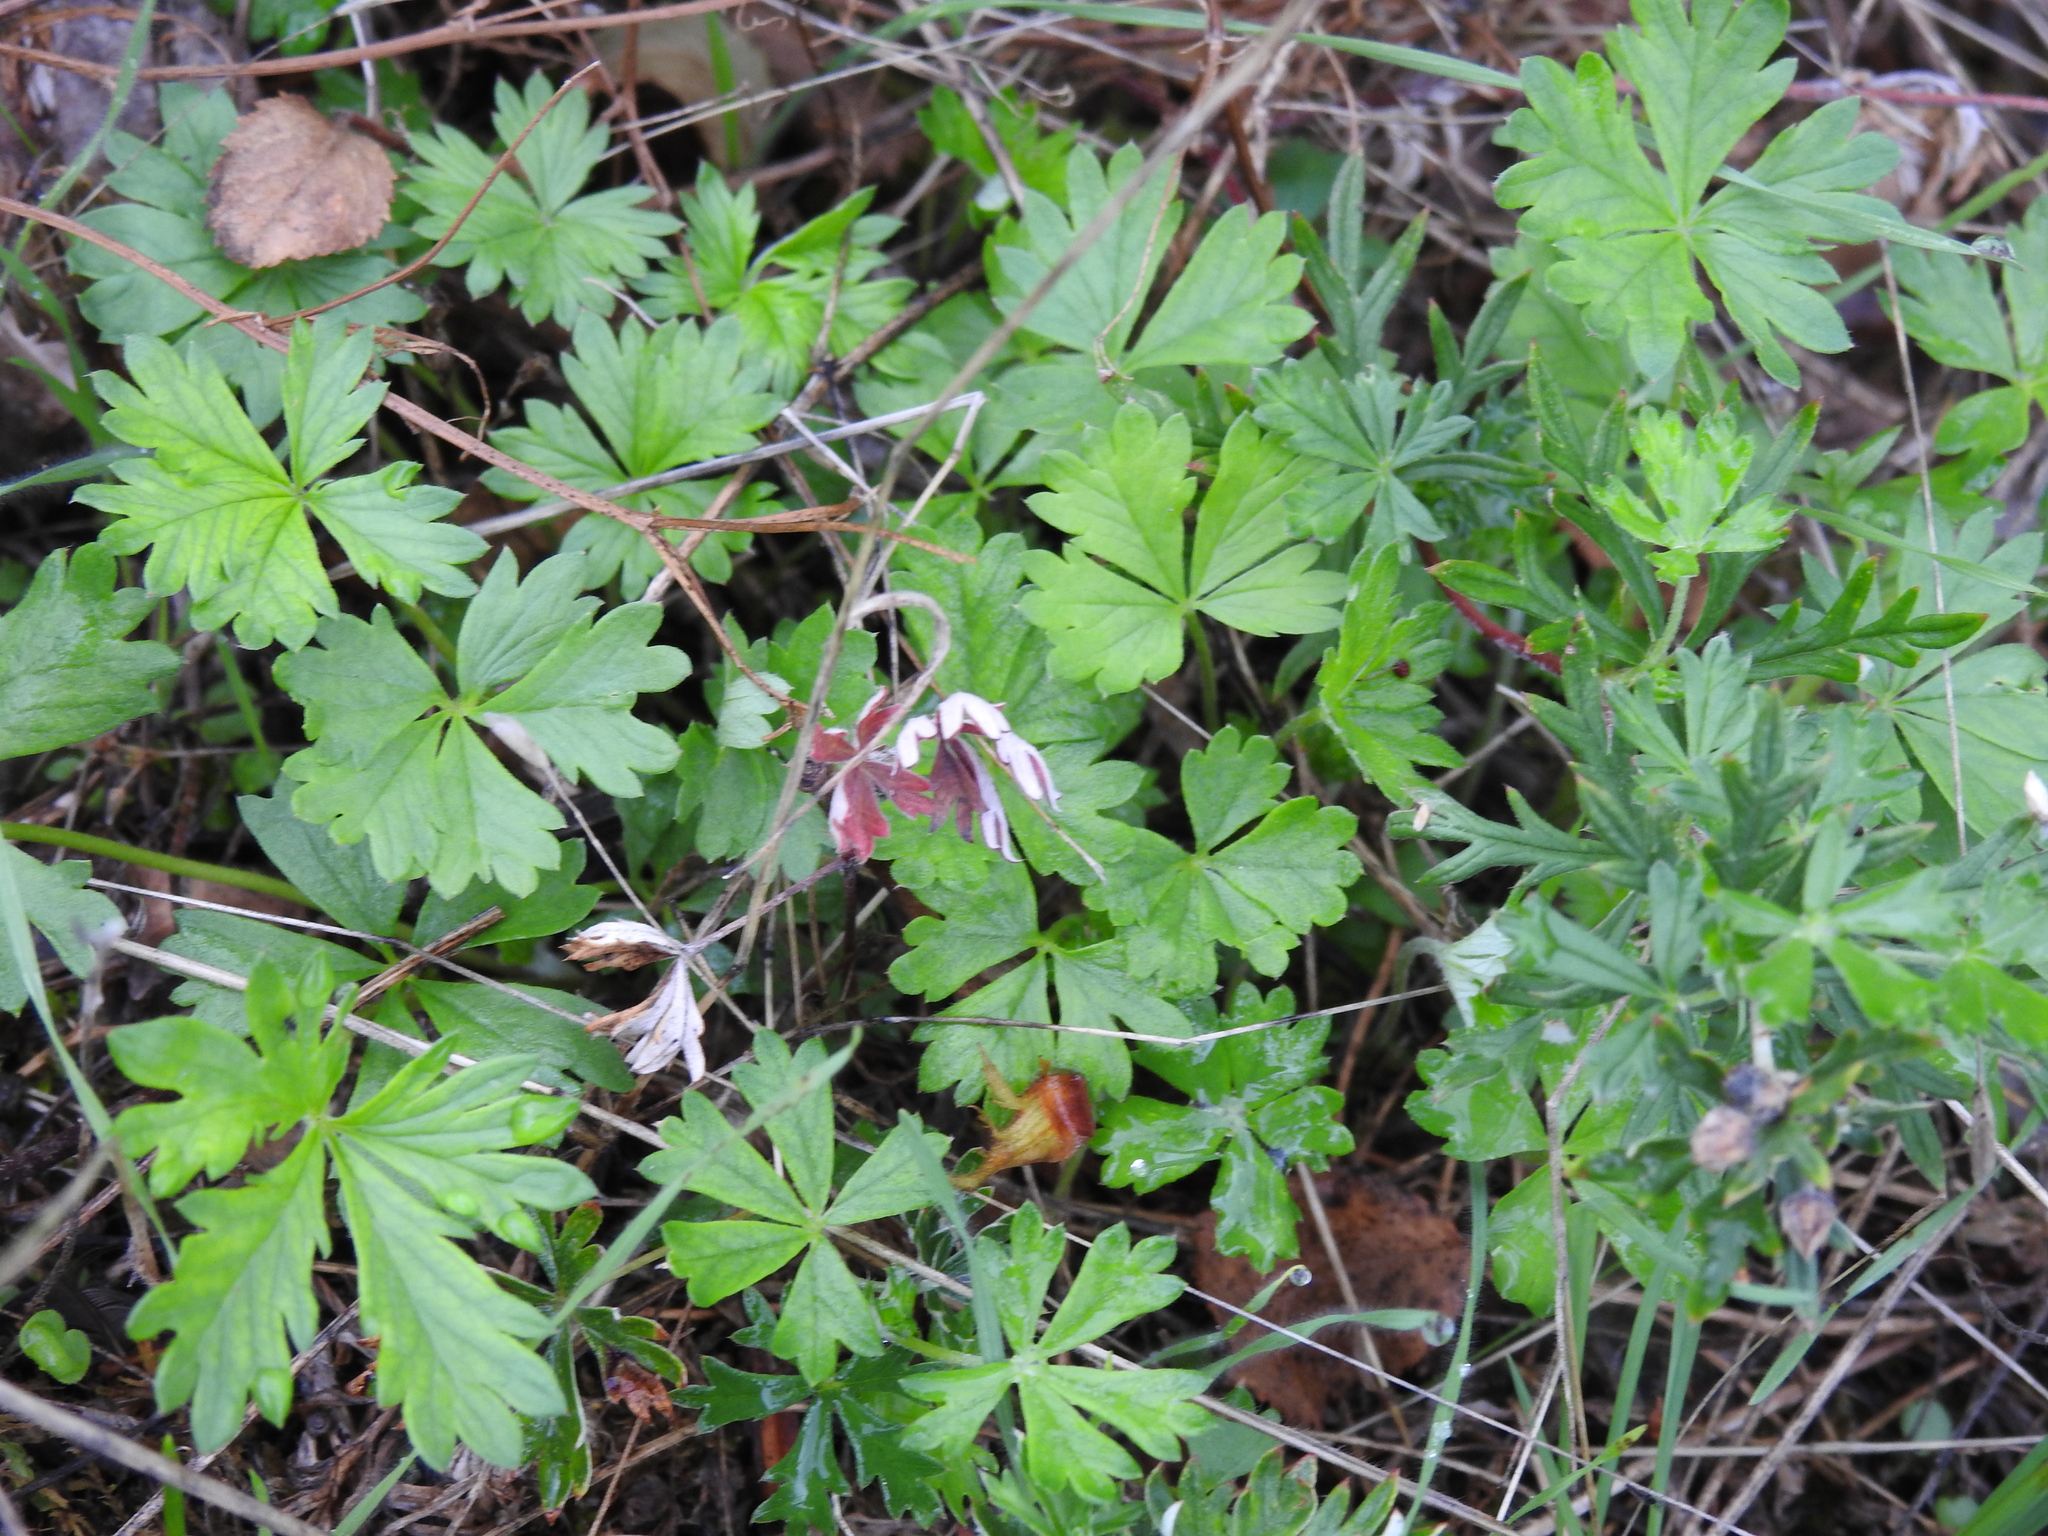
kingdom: Plantae
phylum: Tracheophyta
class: Magnoliopsida
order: Rosales
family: Rosaceae
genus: Potentilla
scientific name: Potentilla argentea
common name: Hoary cinquefoil
